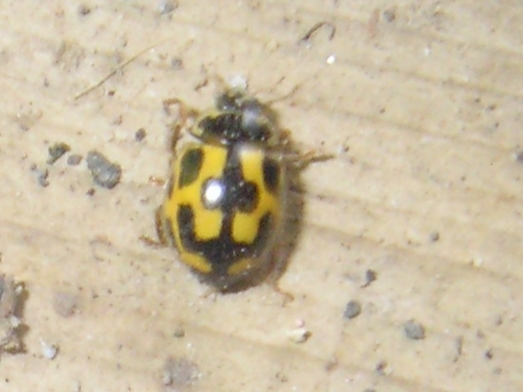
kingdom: Animalia
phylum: Arthropoda
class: Insecta
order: Coleoptera
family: Coccinellidae
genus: Propylaea
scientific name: Propylaea quatuordecimpunctata
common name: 14-spotted ladybird beetle
